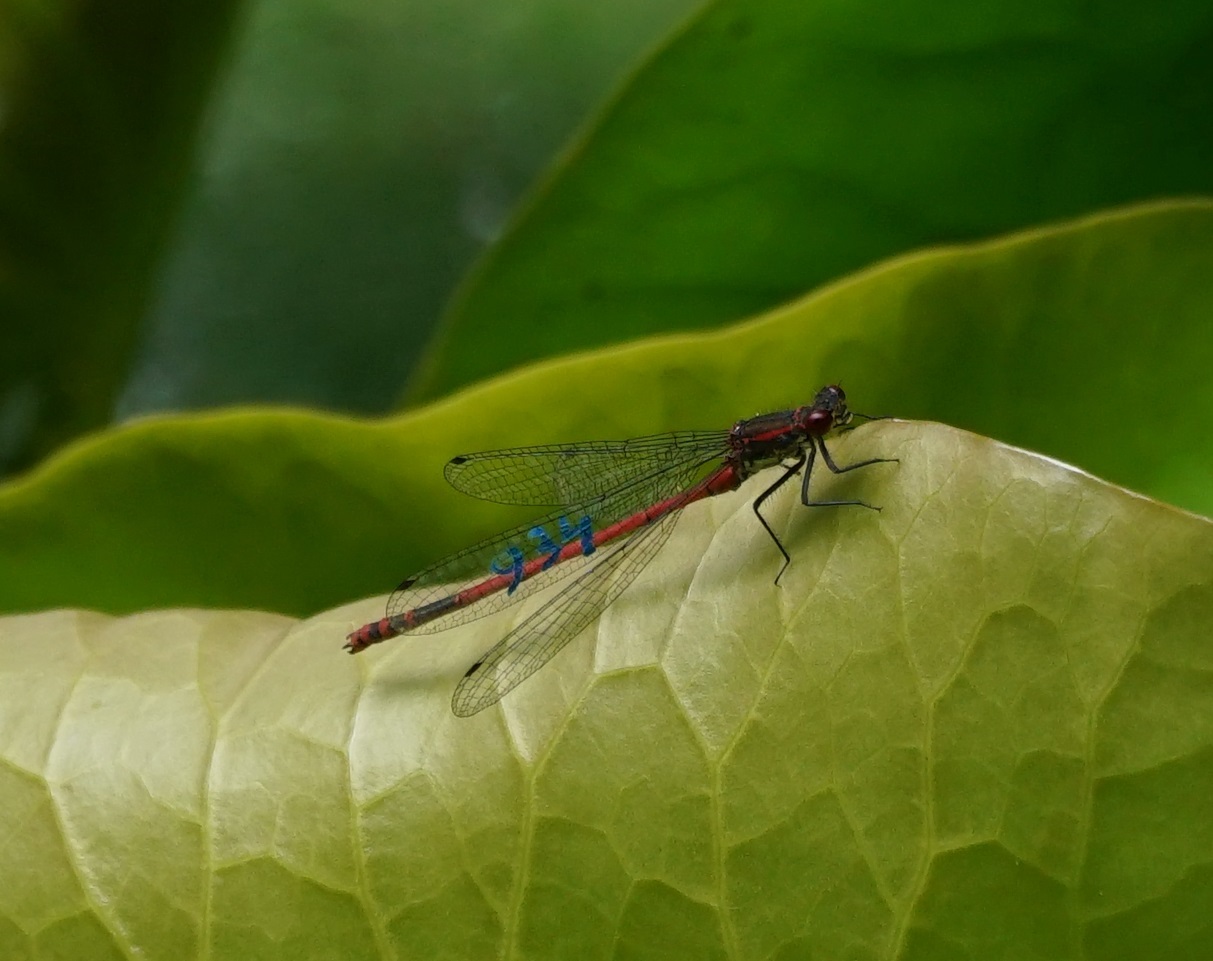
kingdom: Animalia
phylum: Arthropoda
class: Insecta
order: Odonata
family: Coenagrionidae
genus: Pyrrhosoma
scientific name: Pyrrhosoma nymphula
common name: Large red damsel
